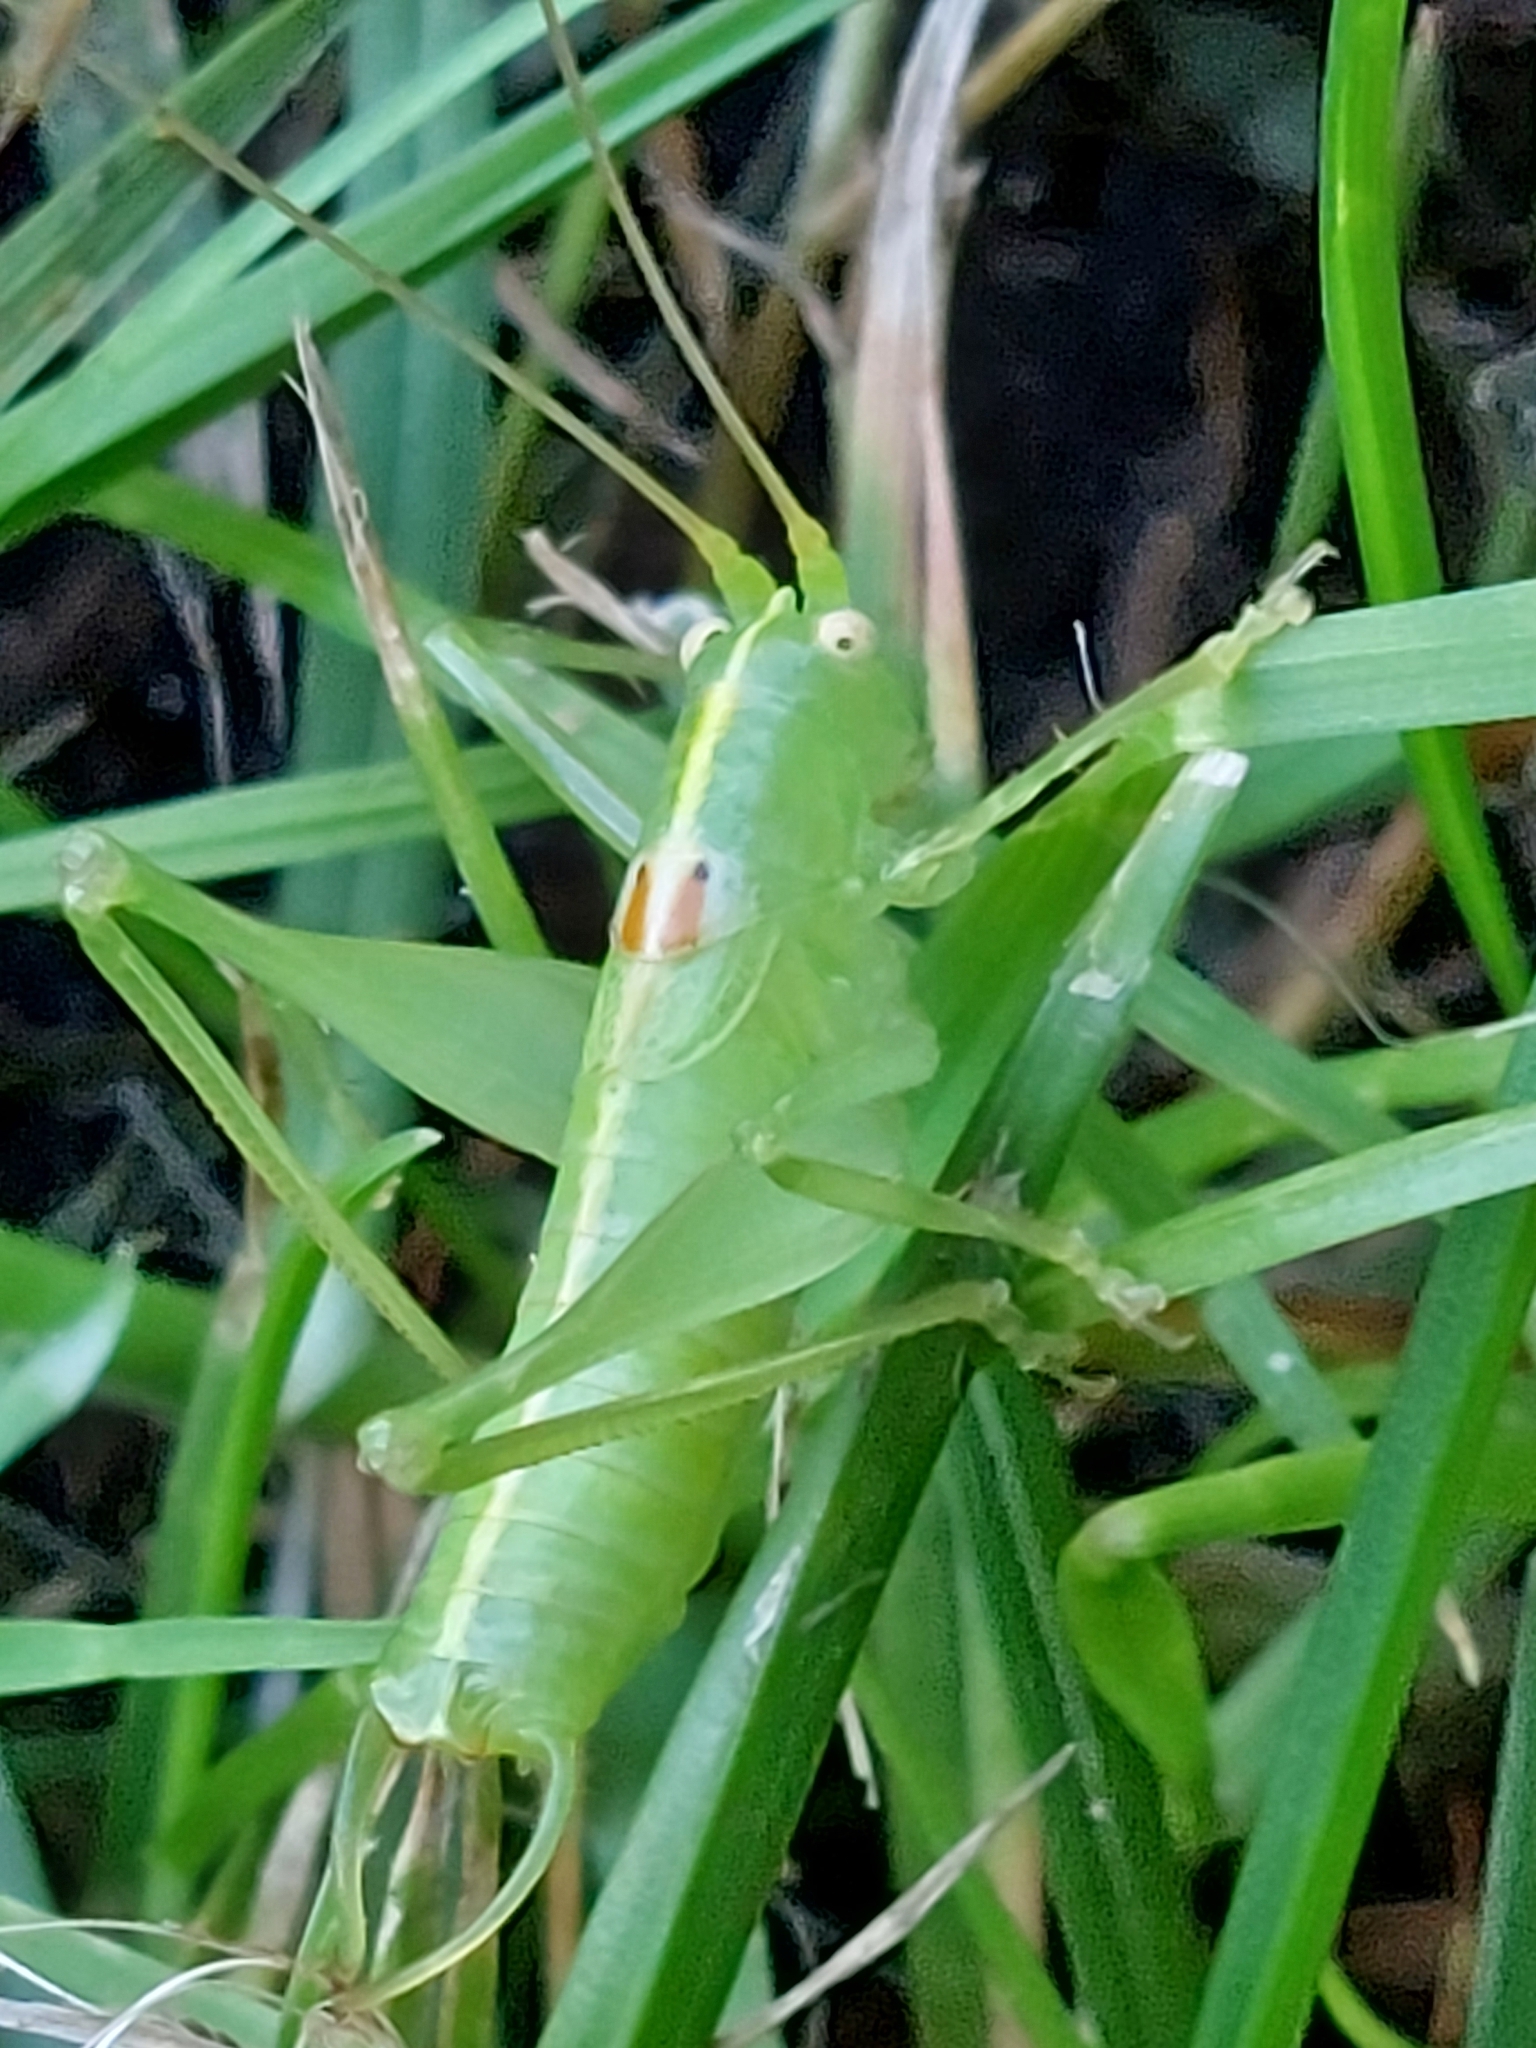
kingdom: Animalia
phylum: Arthropoda
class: Insecta
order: Orthoptera
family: Tettigoniidae
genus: Meconema
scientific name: Meconema meridionale
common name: Southern oak bush-cricket
